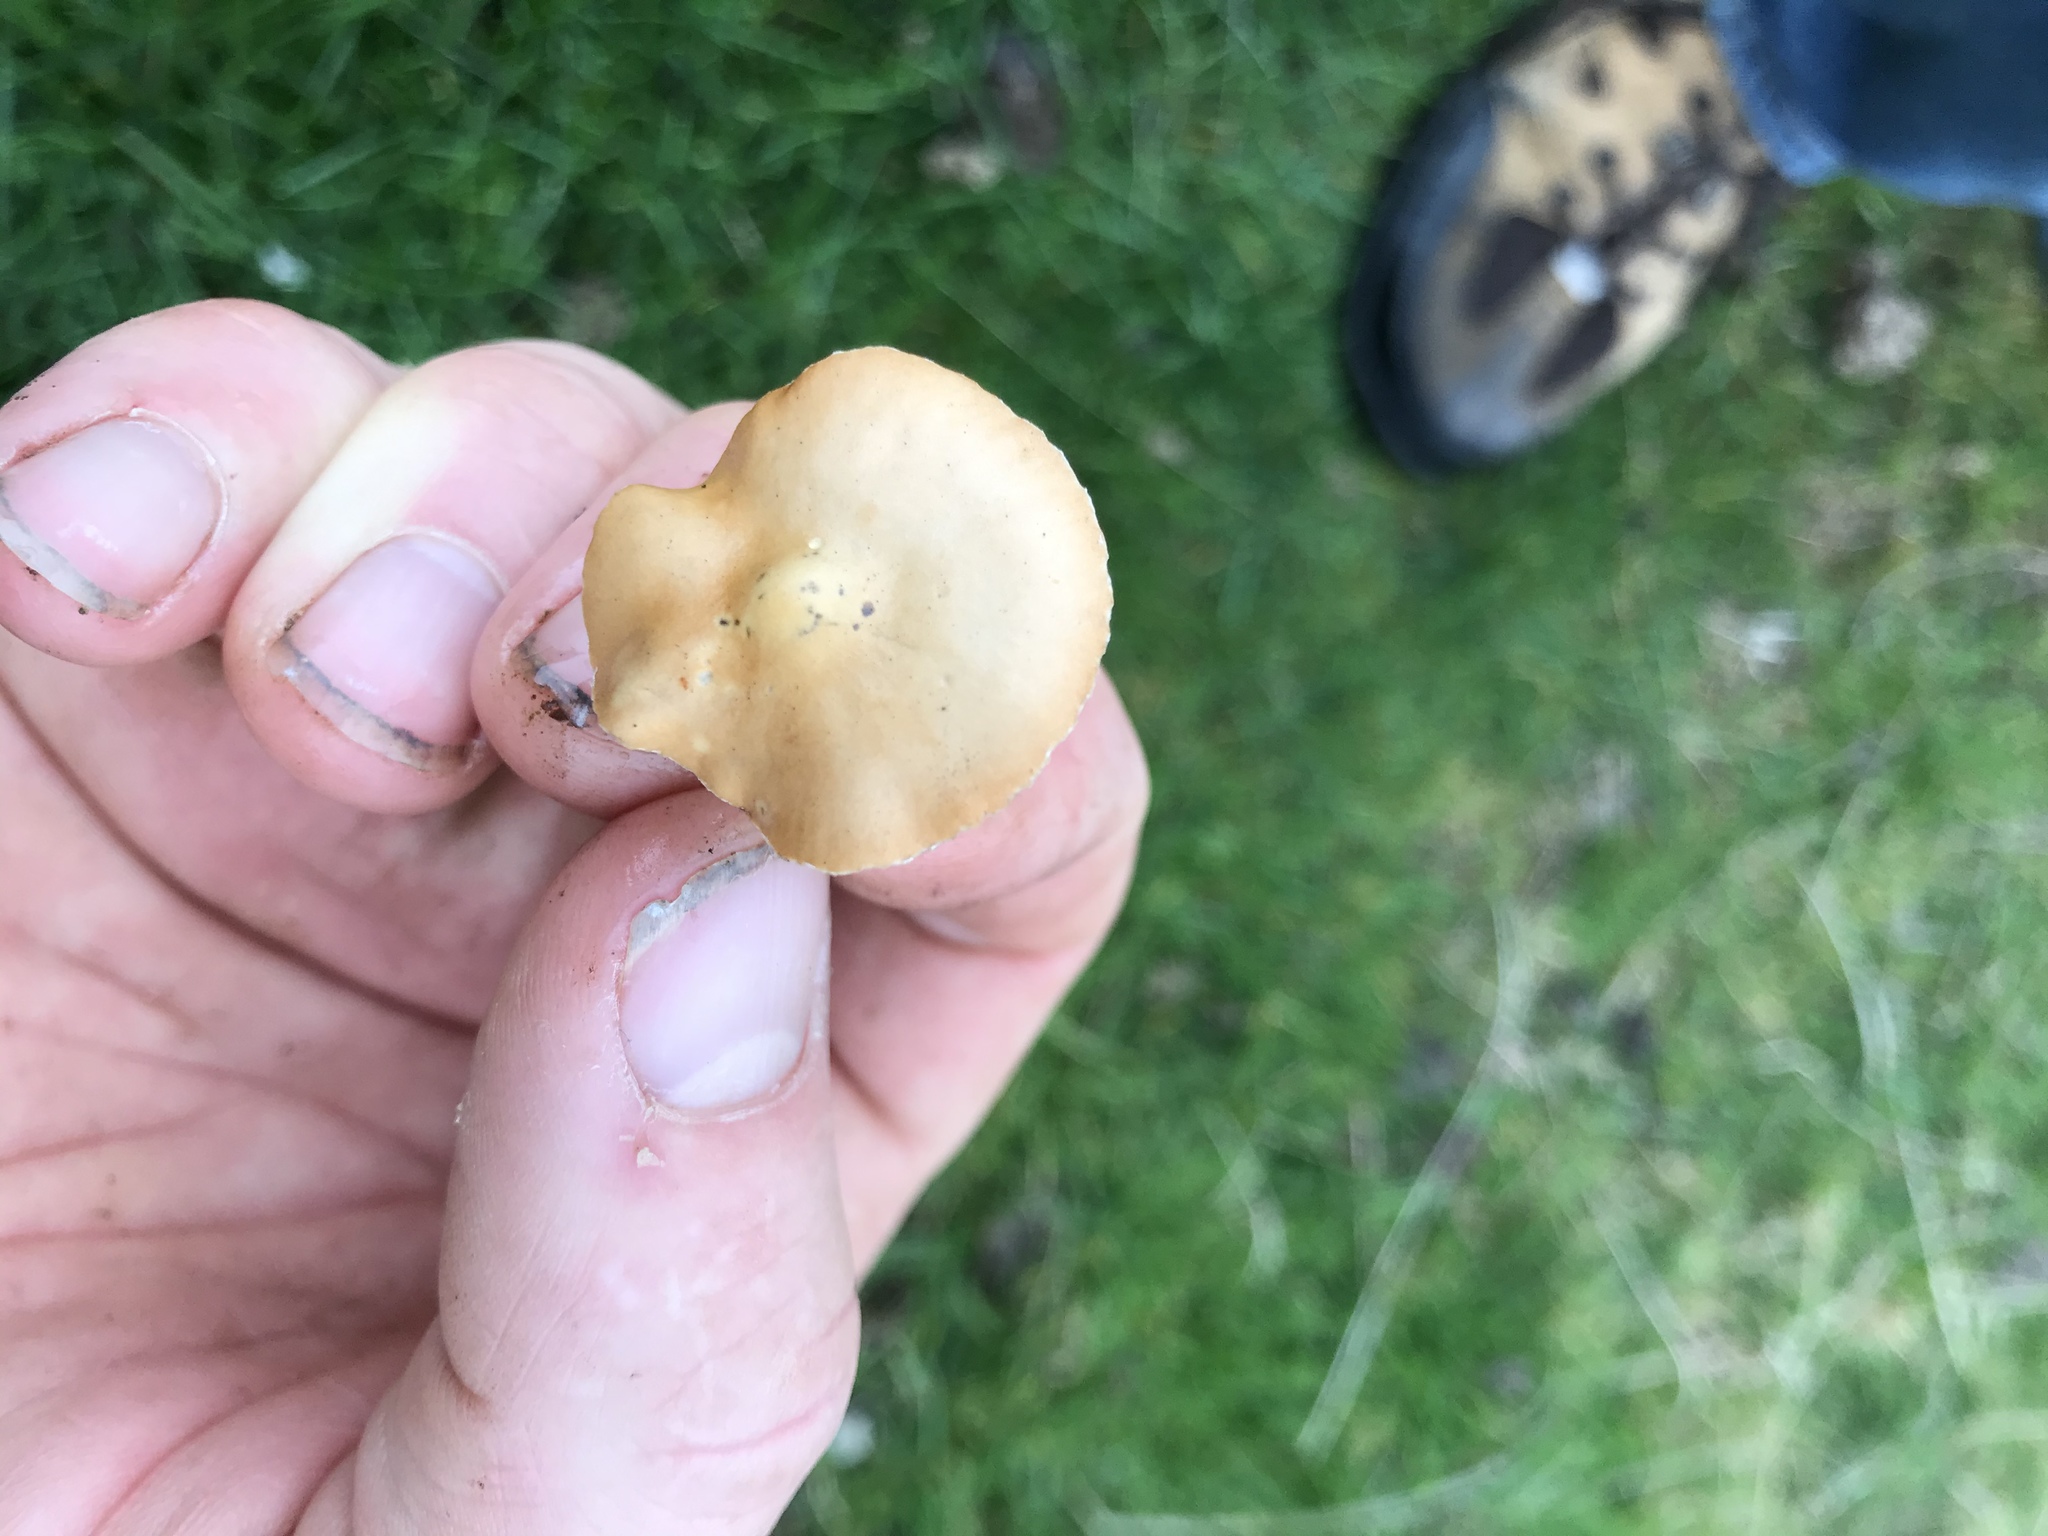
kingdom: Fungi
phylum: Basidiomycota
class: Agaricomycetes
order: Agaricales
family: Strophariaceae
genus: Agrocybe
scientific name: Agrocybe pediades
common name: Common fieldcap
